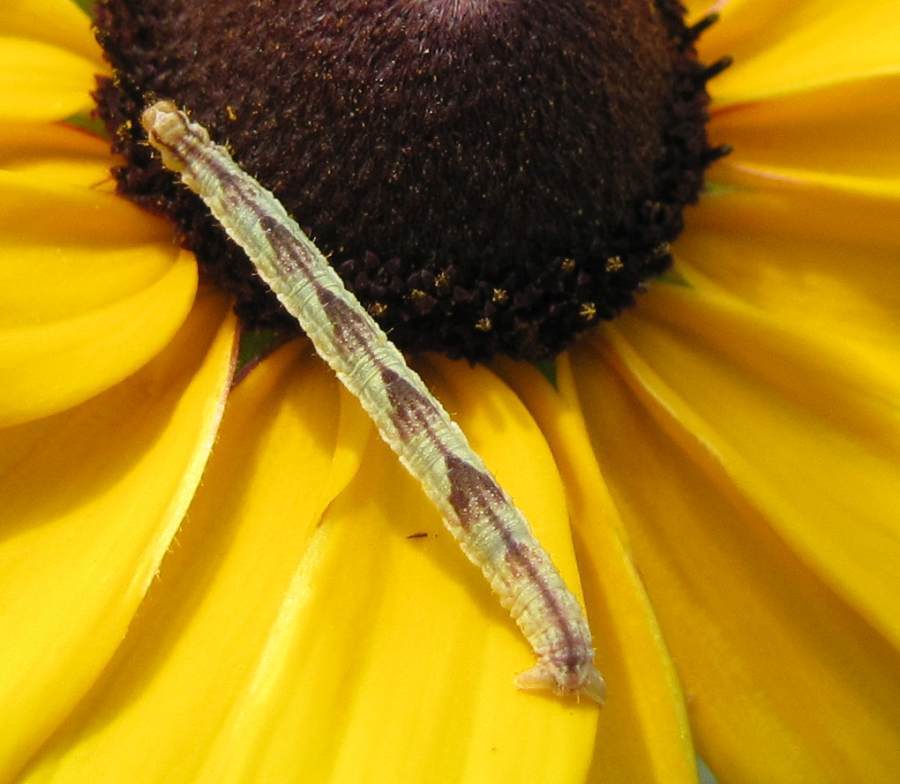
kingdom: Animalia
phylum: Arthropoda
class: Insecta
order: Lepidoptera
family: Geometridae
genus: Eupithecia
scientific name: Eupithecia miserulata
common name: Common eupithecia
